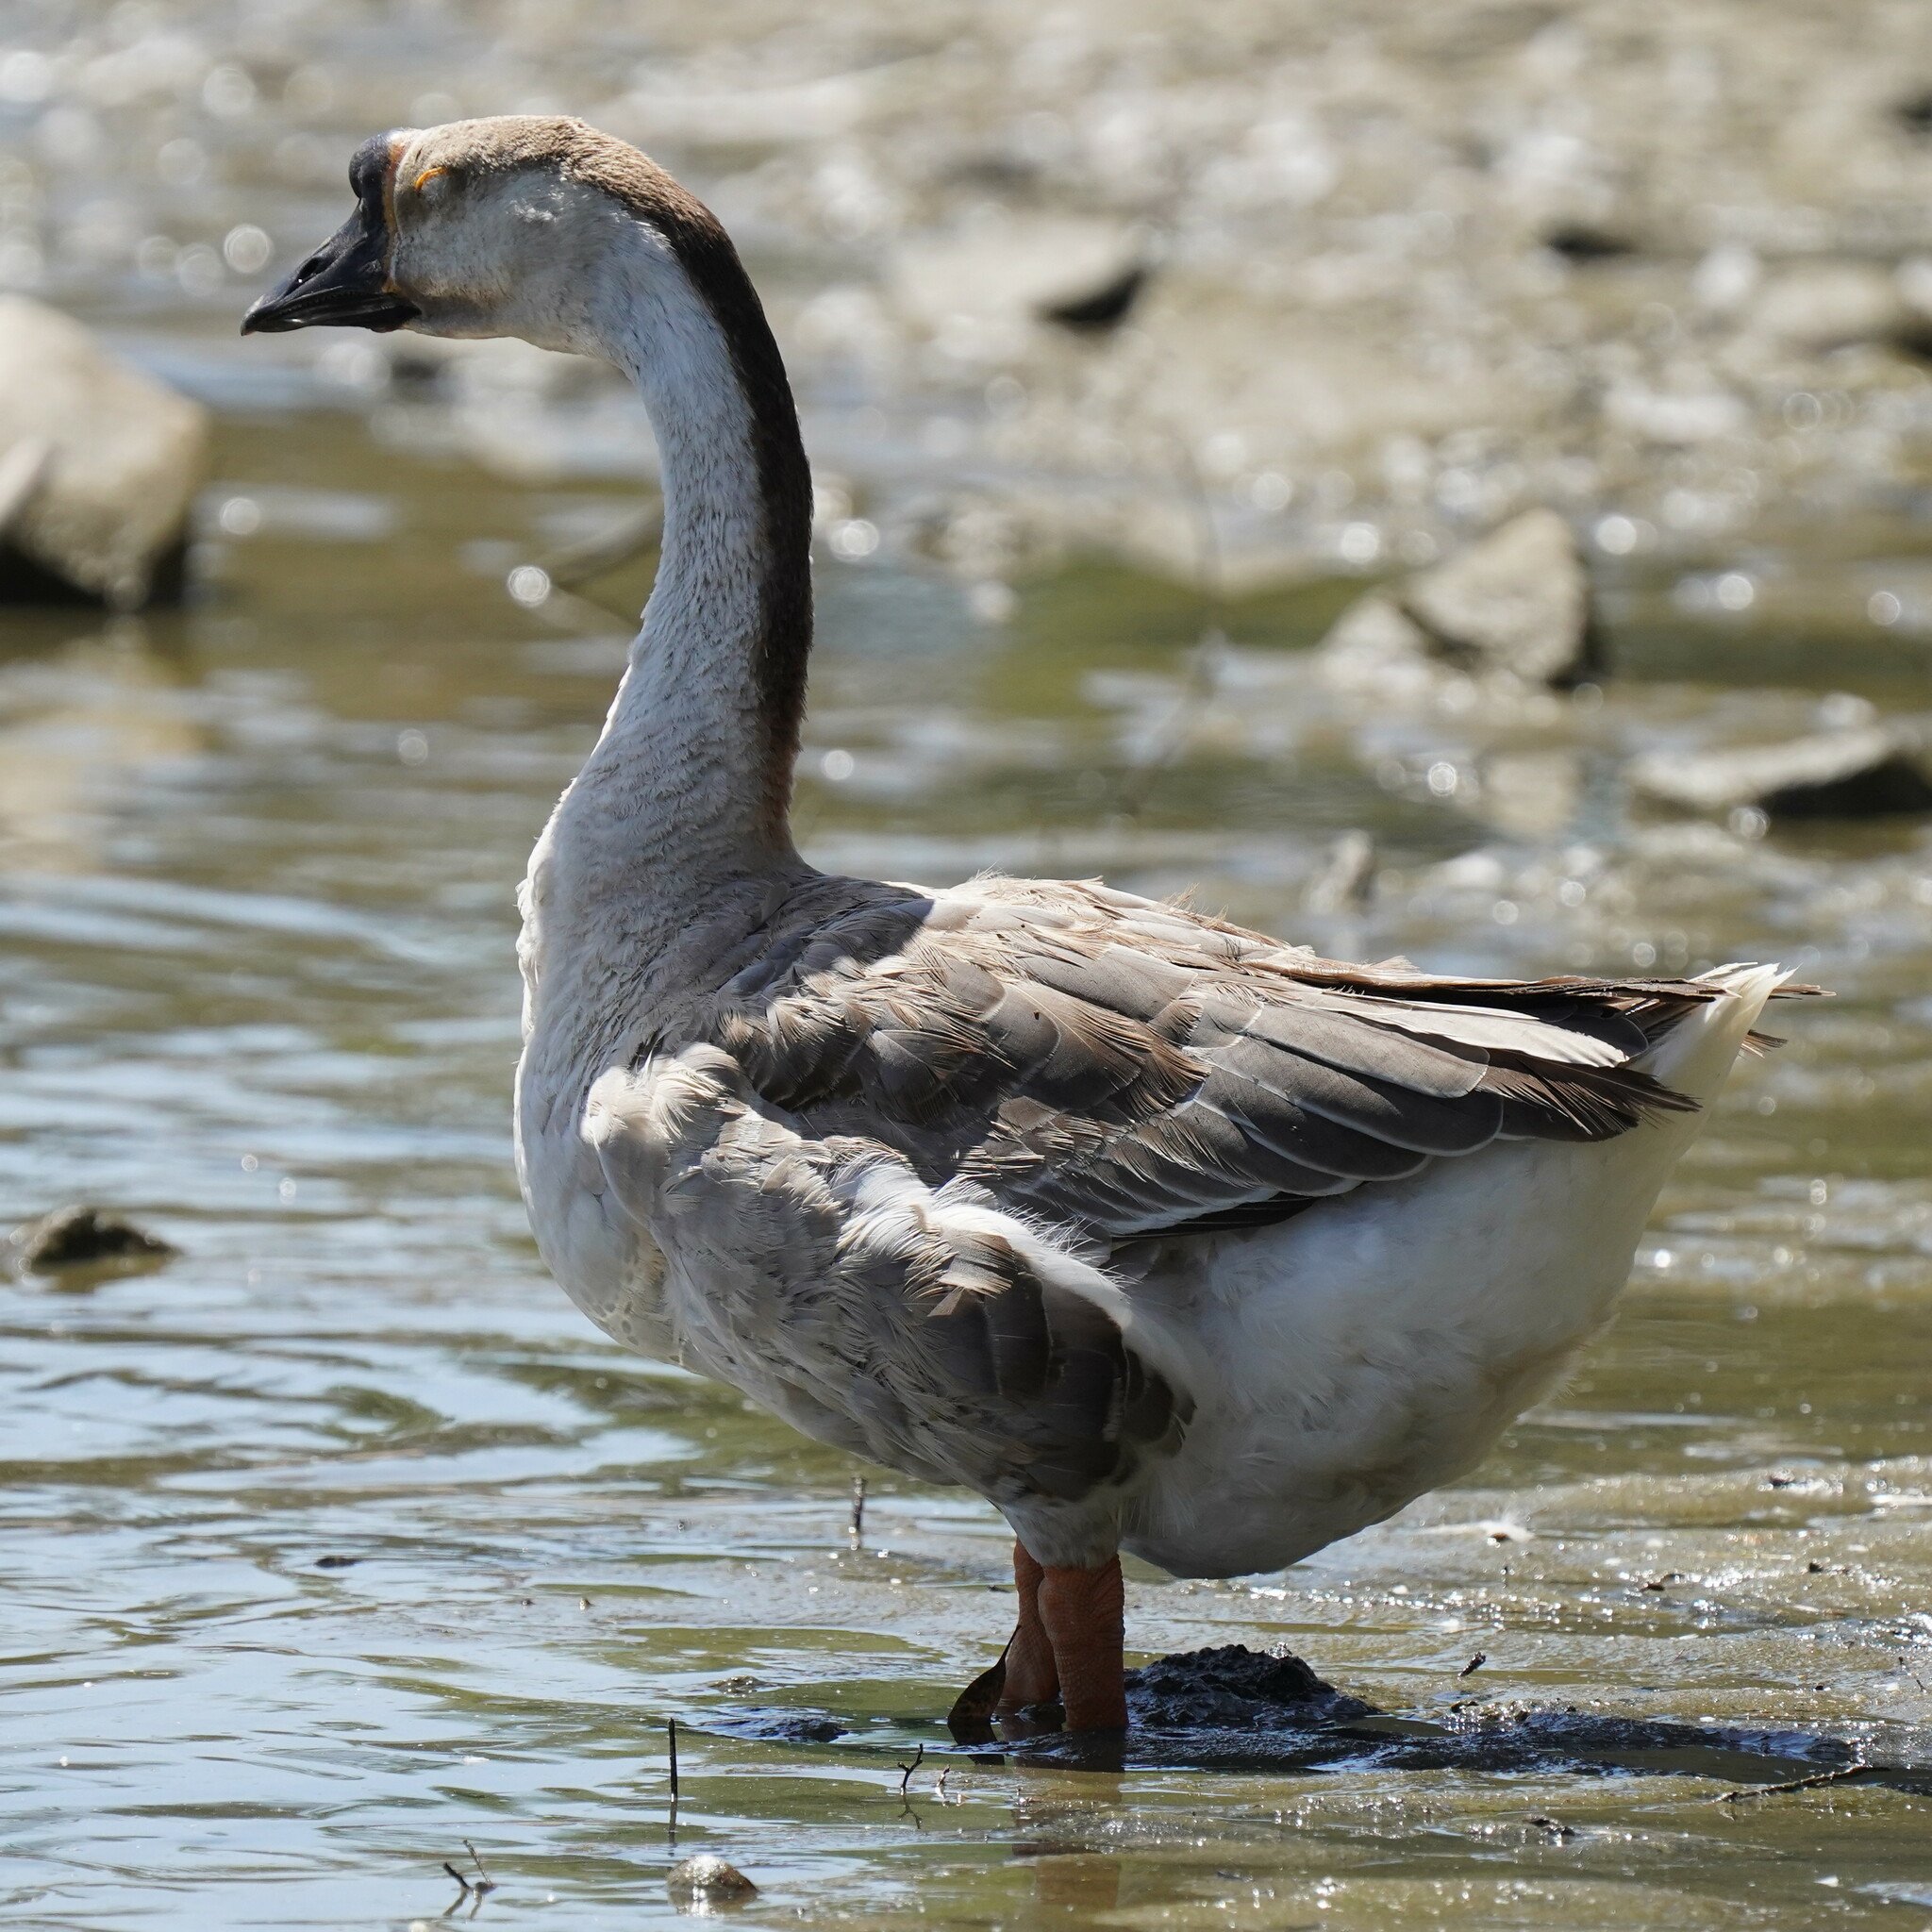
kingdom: Animalia
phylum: Chordata
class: Aves
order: Anseriformes
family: Anatidae
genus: Anser
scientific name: Anser cygnoides
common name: Swan goose
